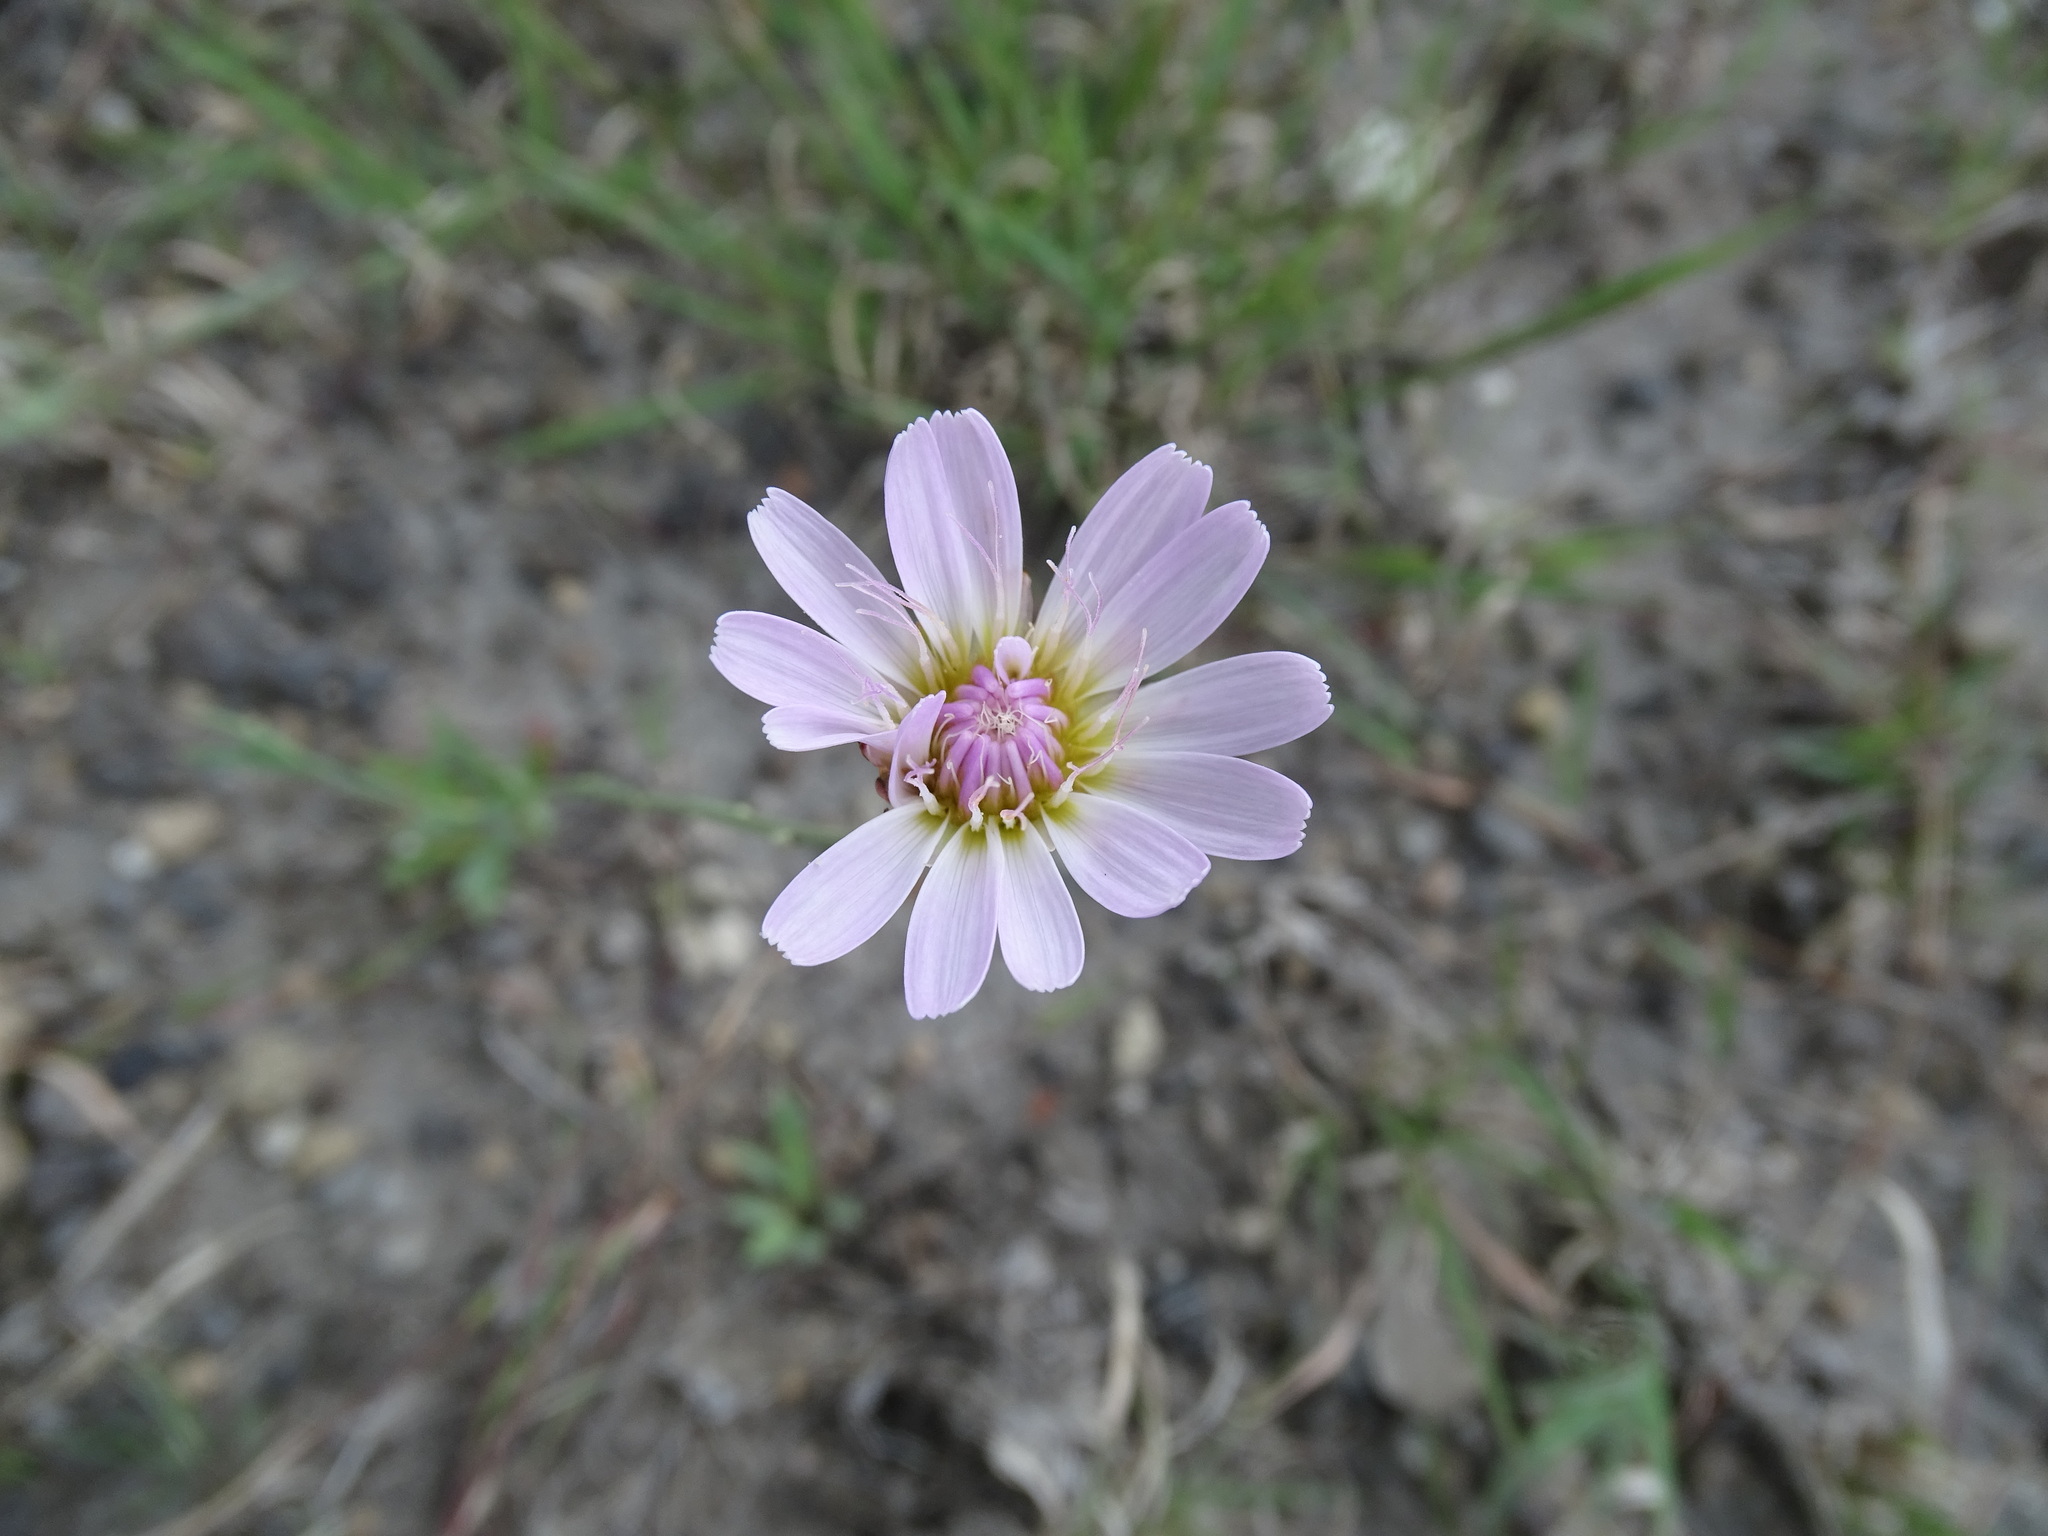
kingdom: Plantae
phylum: Tracheophyta
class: Magnoliopsida
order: Asterales
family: Asteraceae
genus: Pinaropappus
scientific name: Pinaropappus roseus
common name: Rock-lettuce
